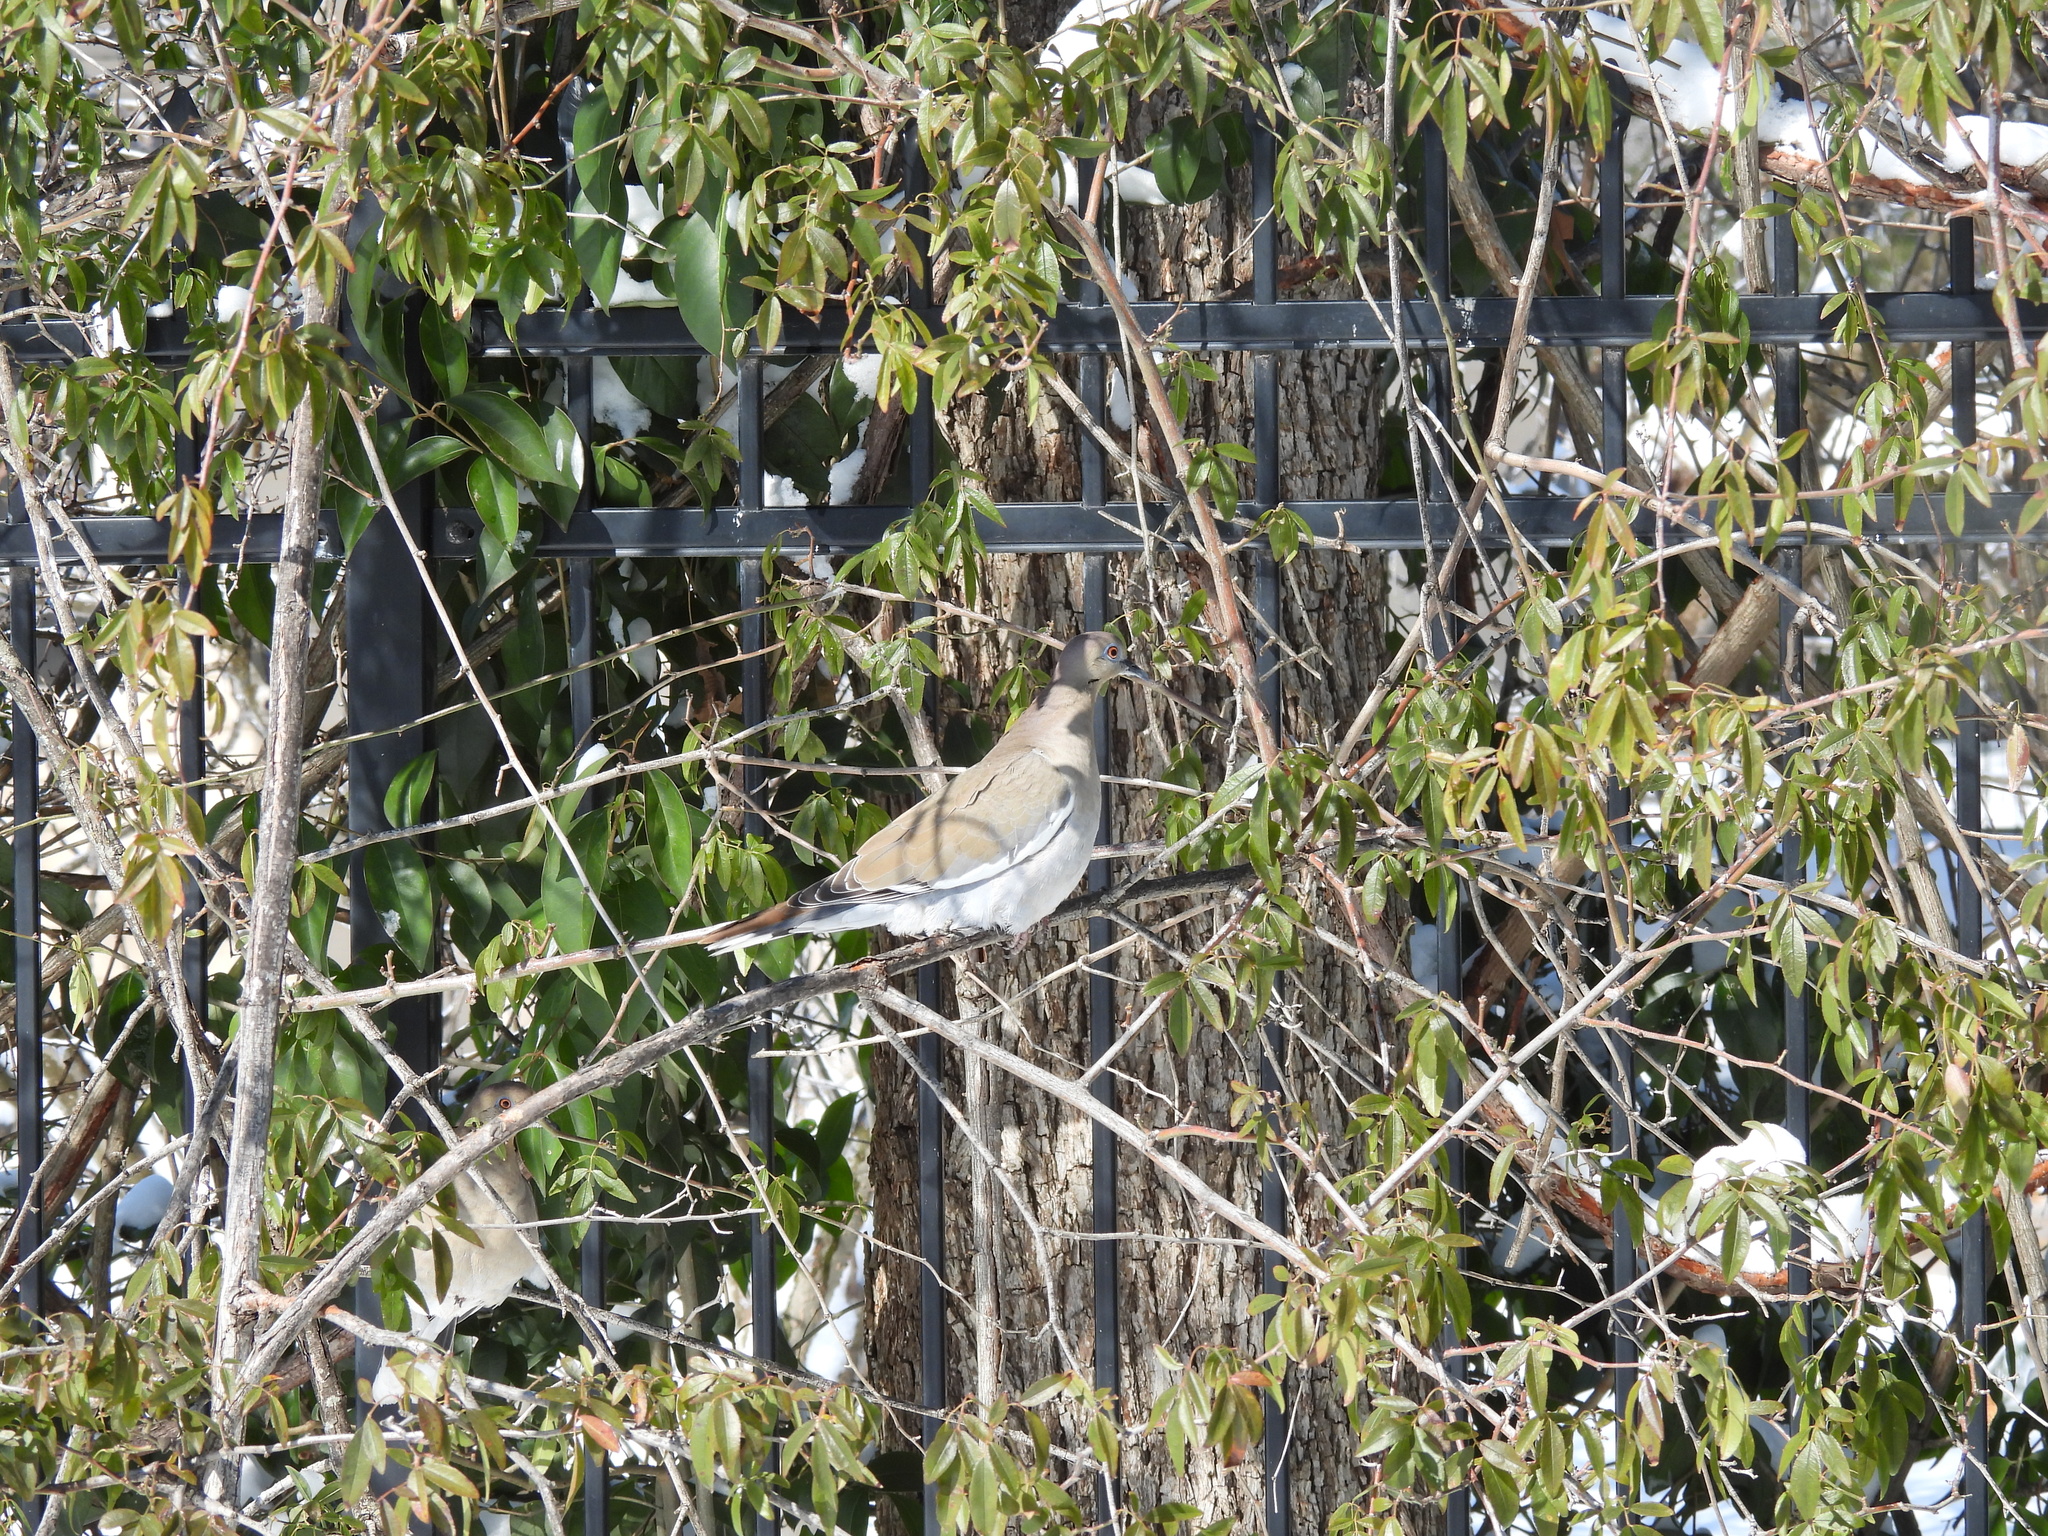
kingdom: Animalia
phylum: Chordata
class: Aves
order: Columbiformes
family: Columbidae
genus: Zenaida
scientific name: Zenaida asiatica
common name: White-winged dove
